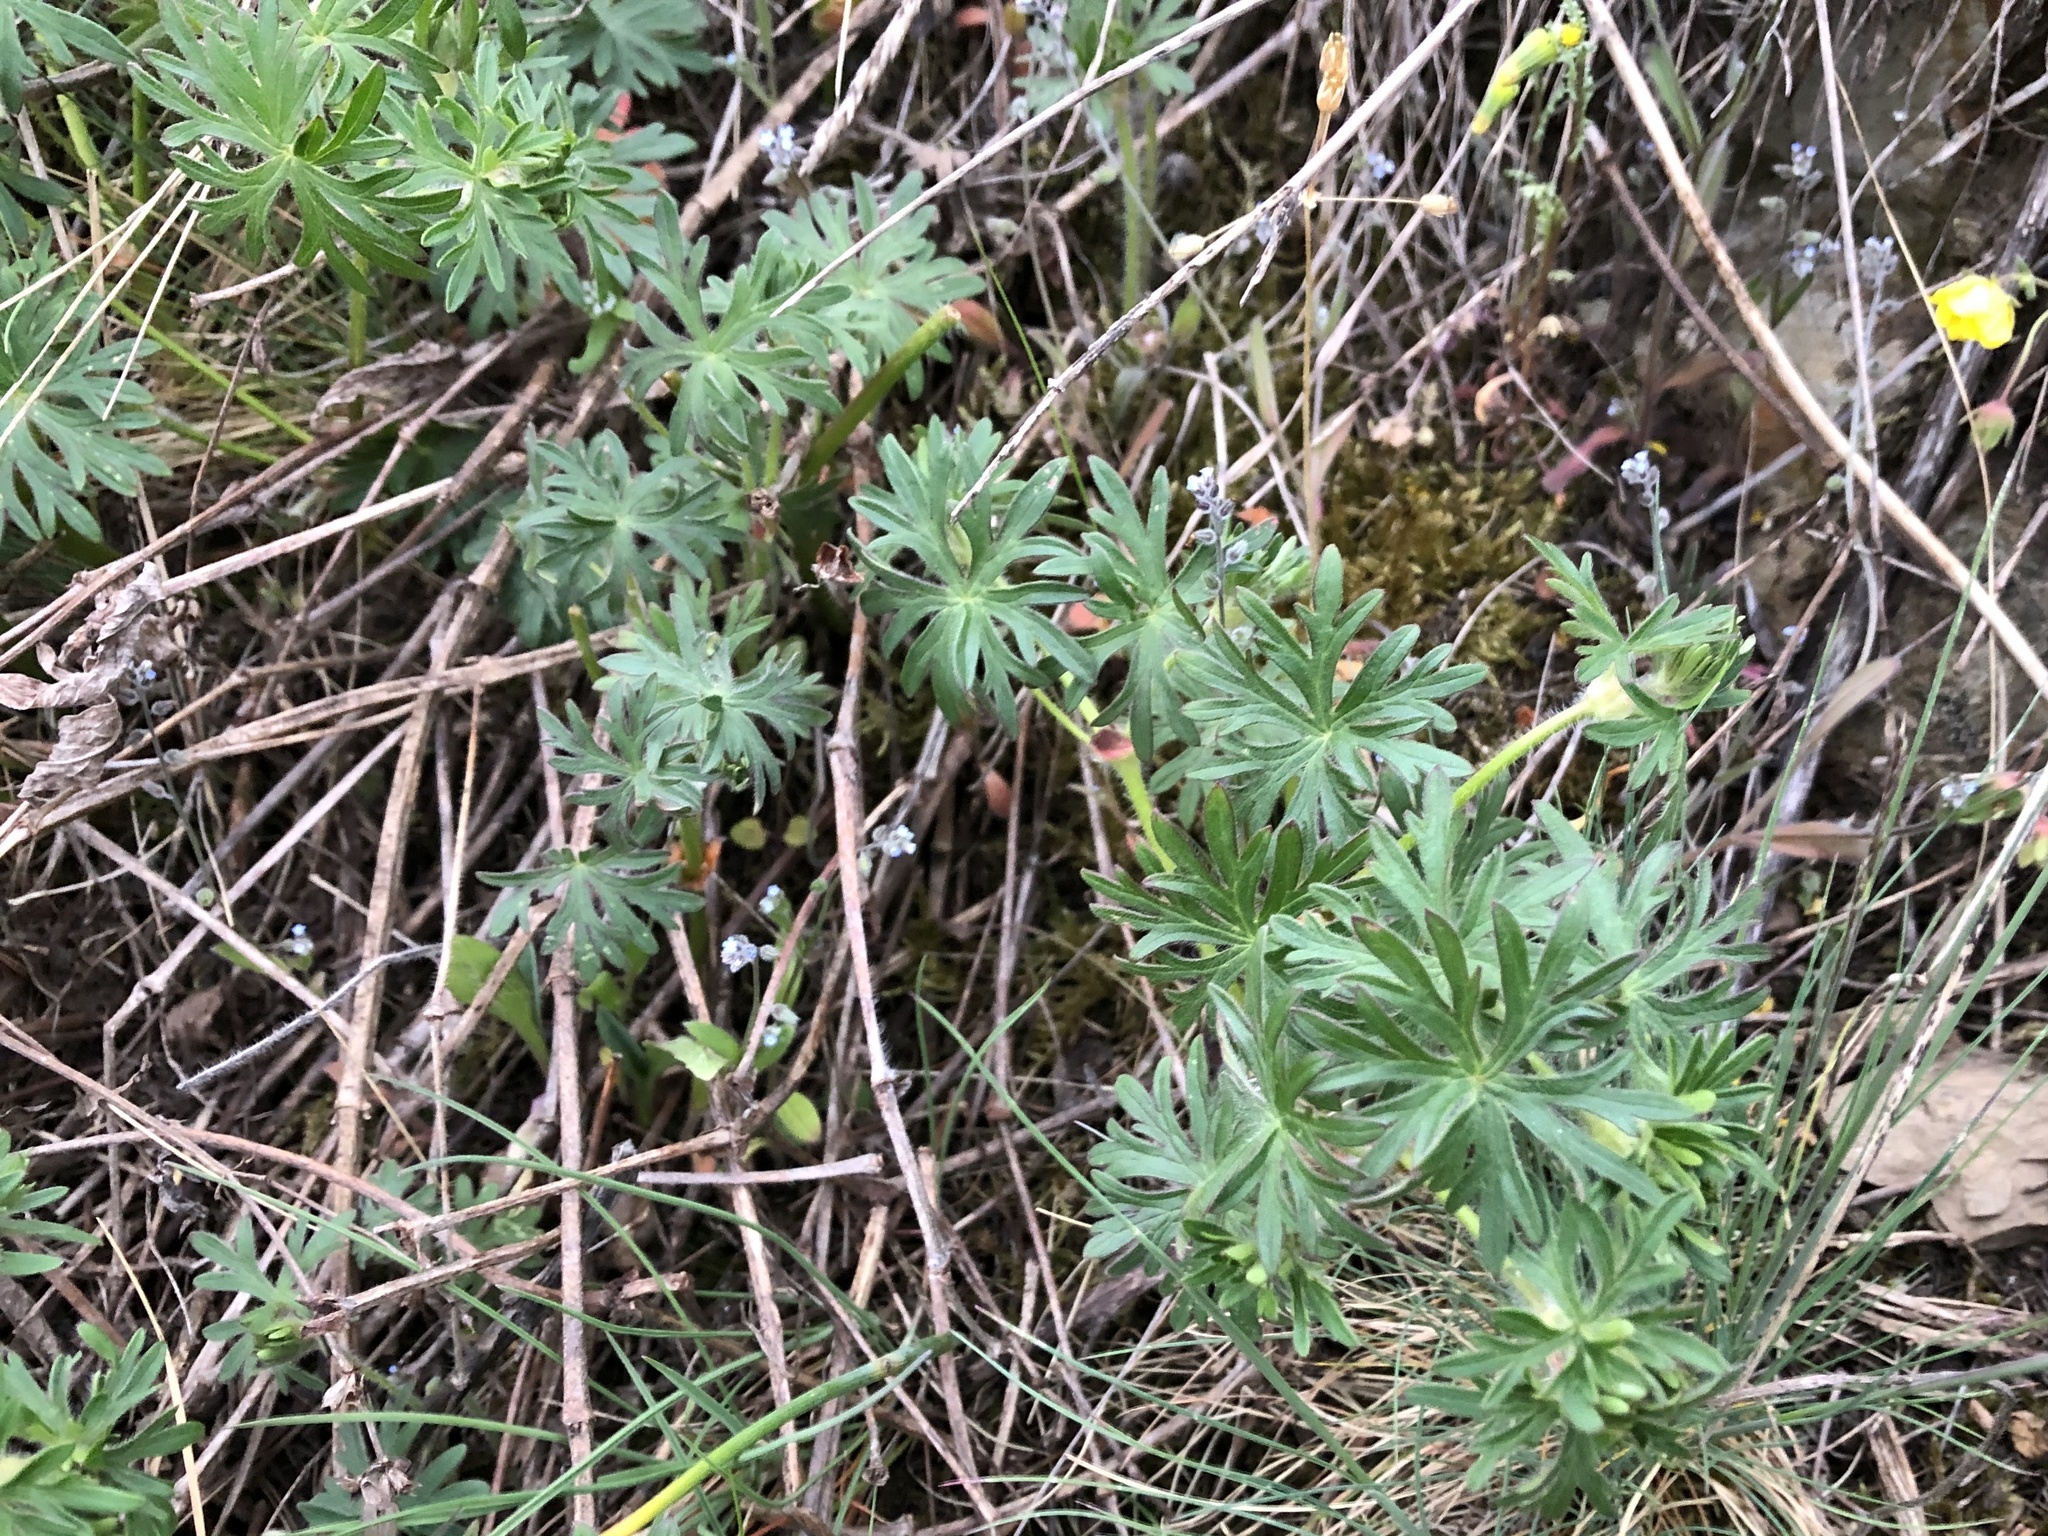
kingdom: Plantae
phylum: Tracheophyta
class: Magnoliopsida
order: Geraniales
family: Geraniaceae
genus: Geranium
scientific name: Geranium sanguineum
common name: Bloody crane's-bill
